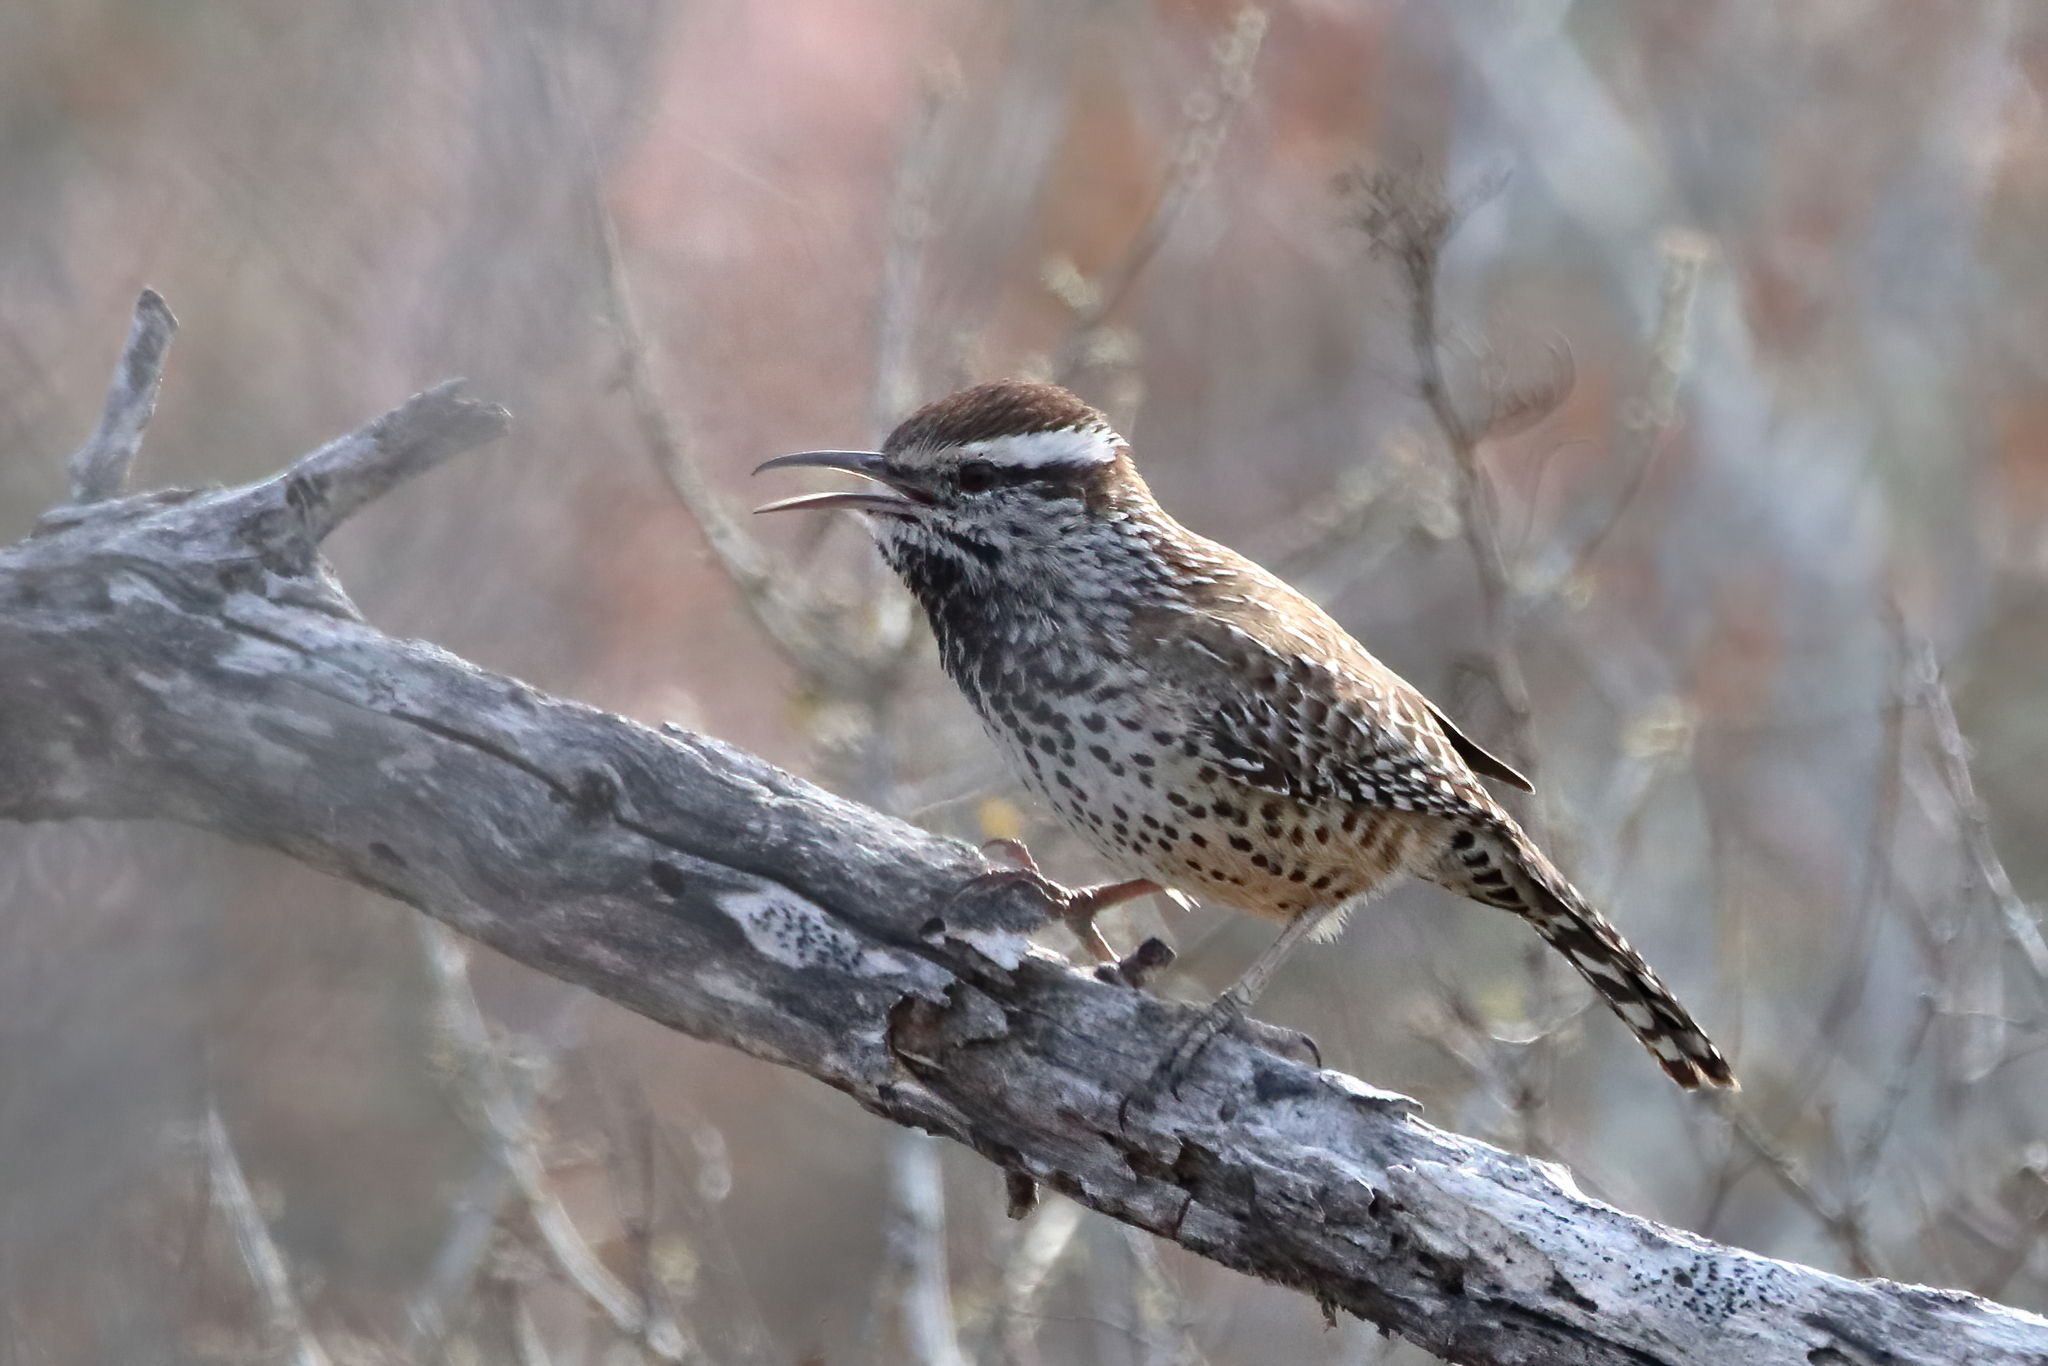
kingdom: Animalia
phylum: Chordata
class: Aves
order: Passeriformes
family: Troglodytidae
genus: Campylorhynchus
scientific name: Campylorhynchus brunneicapillus
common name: Cactus wren
